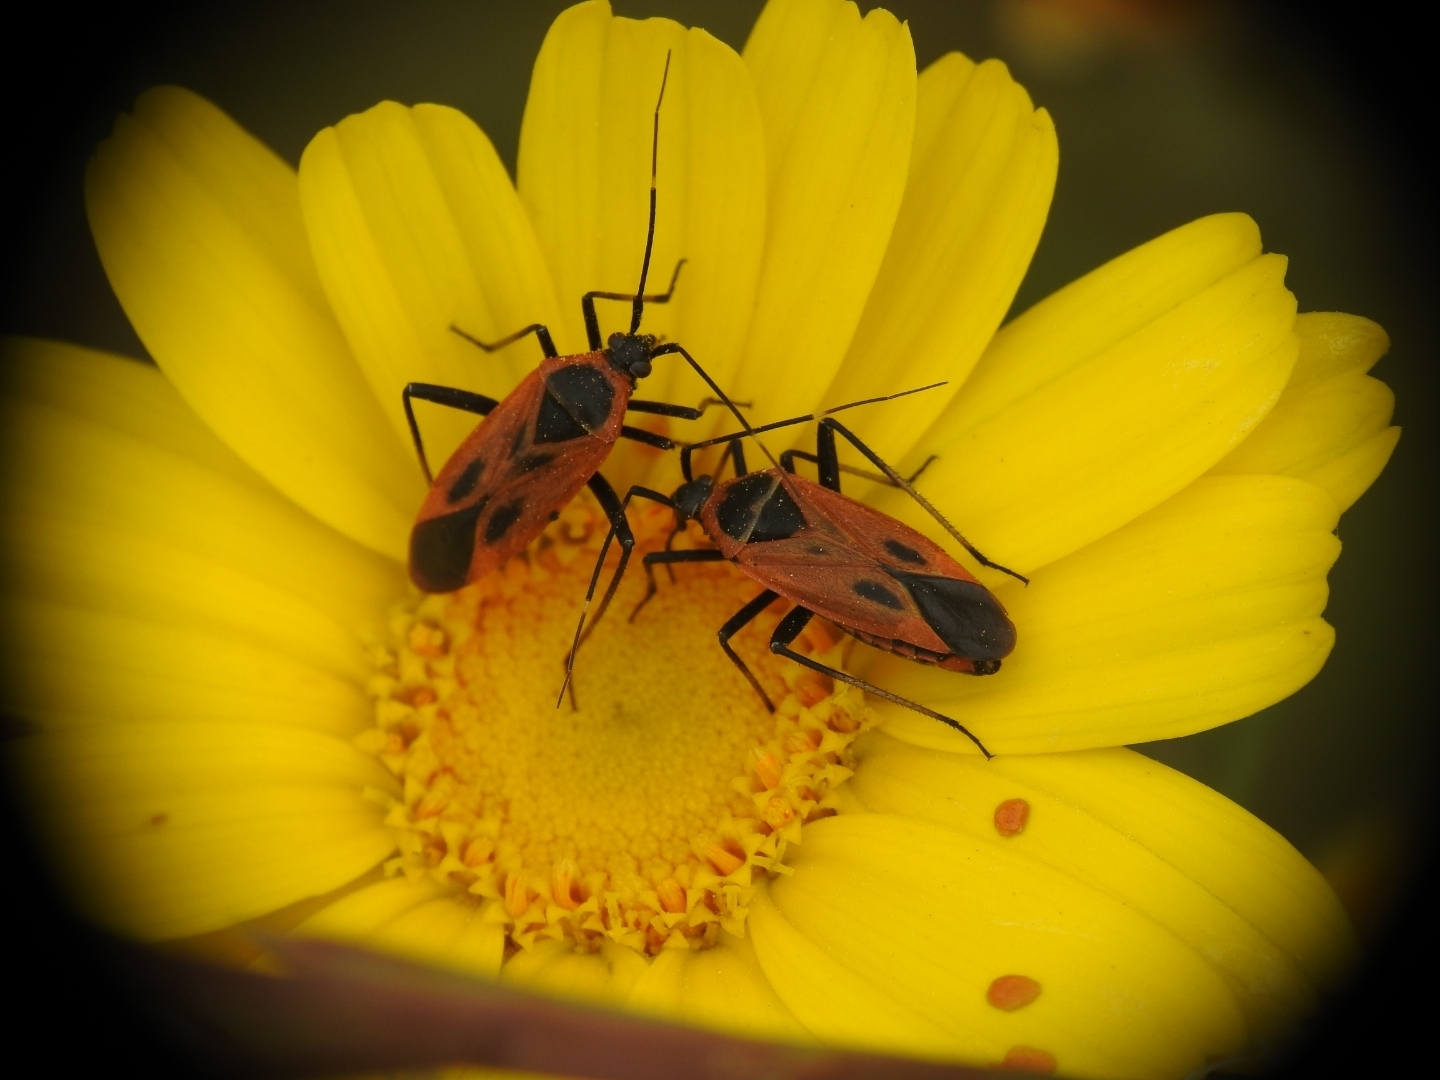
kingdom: Animalia
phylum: Arthropoda
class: Insecta
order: Hemiptera
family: Miridae
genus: Calocoris
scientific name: Calocoris nemoralis
